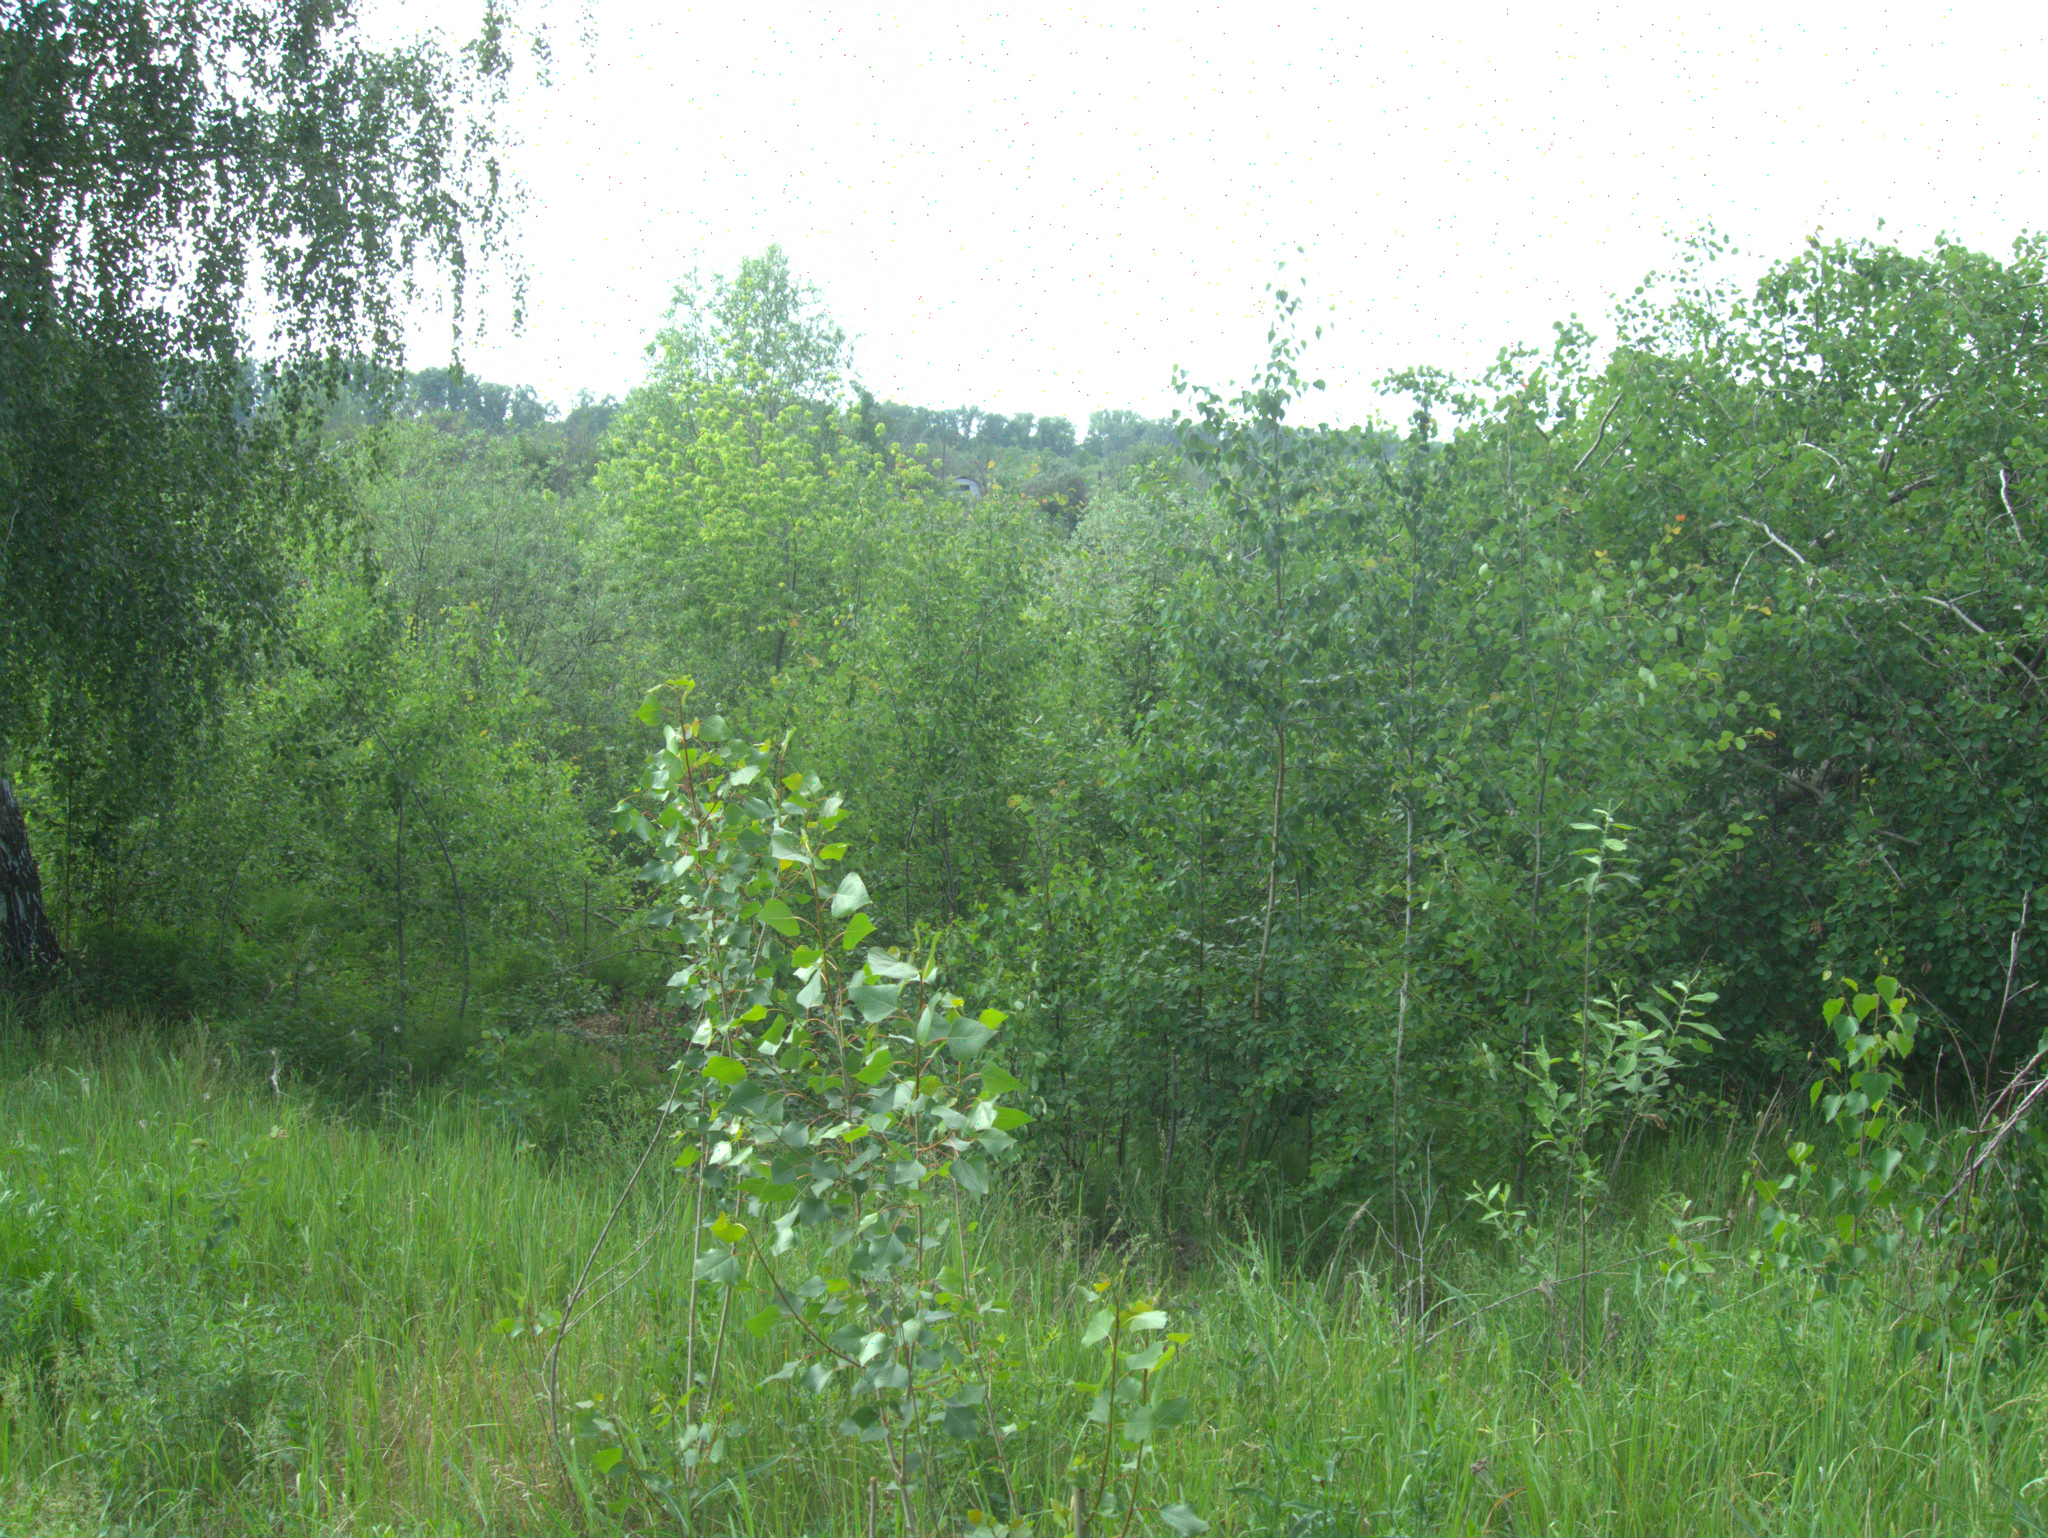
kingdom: Plantae
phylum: Tracheophyta
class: Magnoliopsida
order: Malpighiales
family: Salicaceae
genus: Populus
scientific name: Populus nigra
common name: Black poplar
